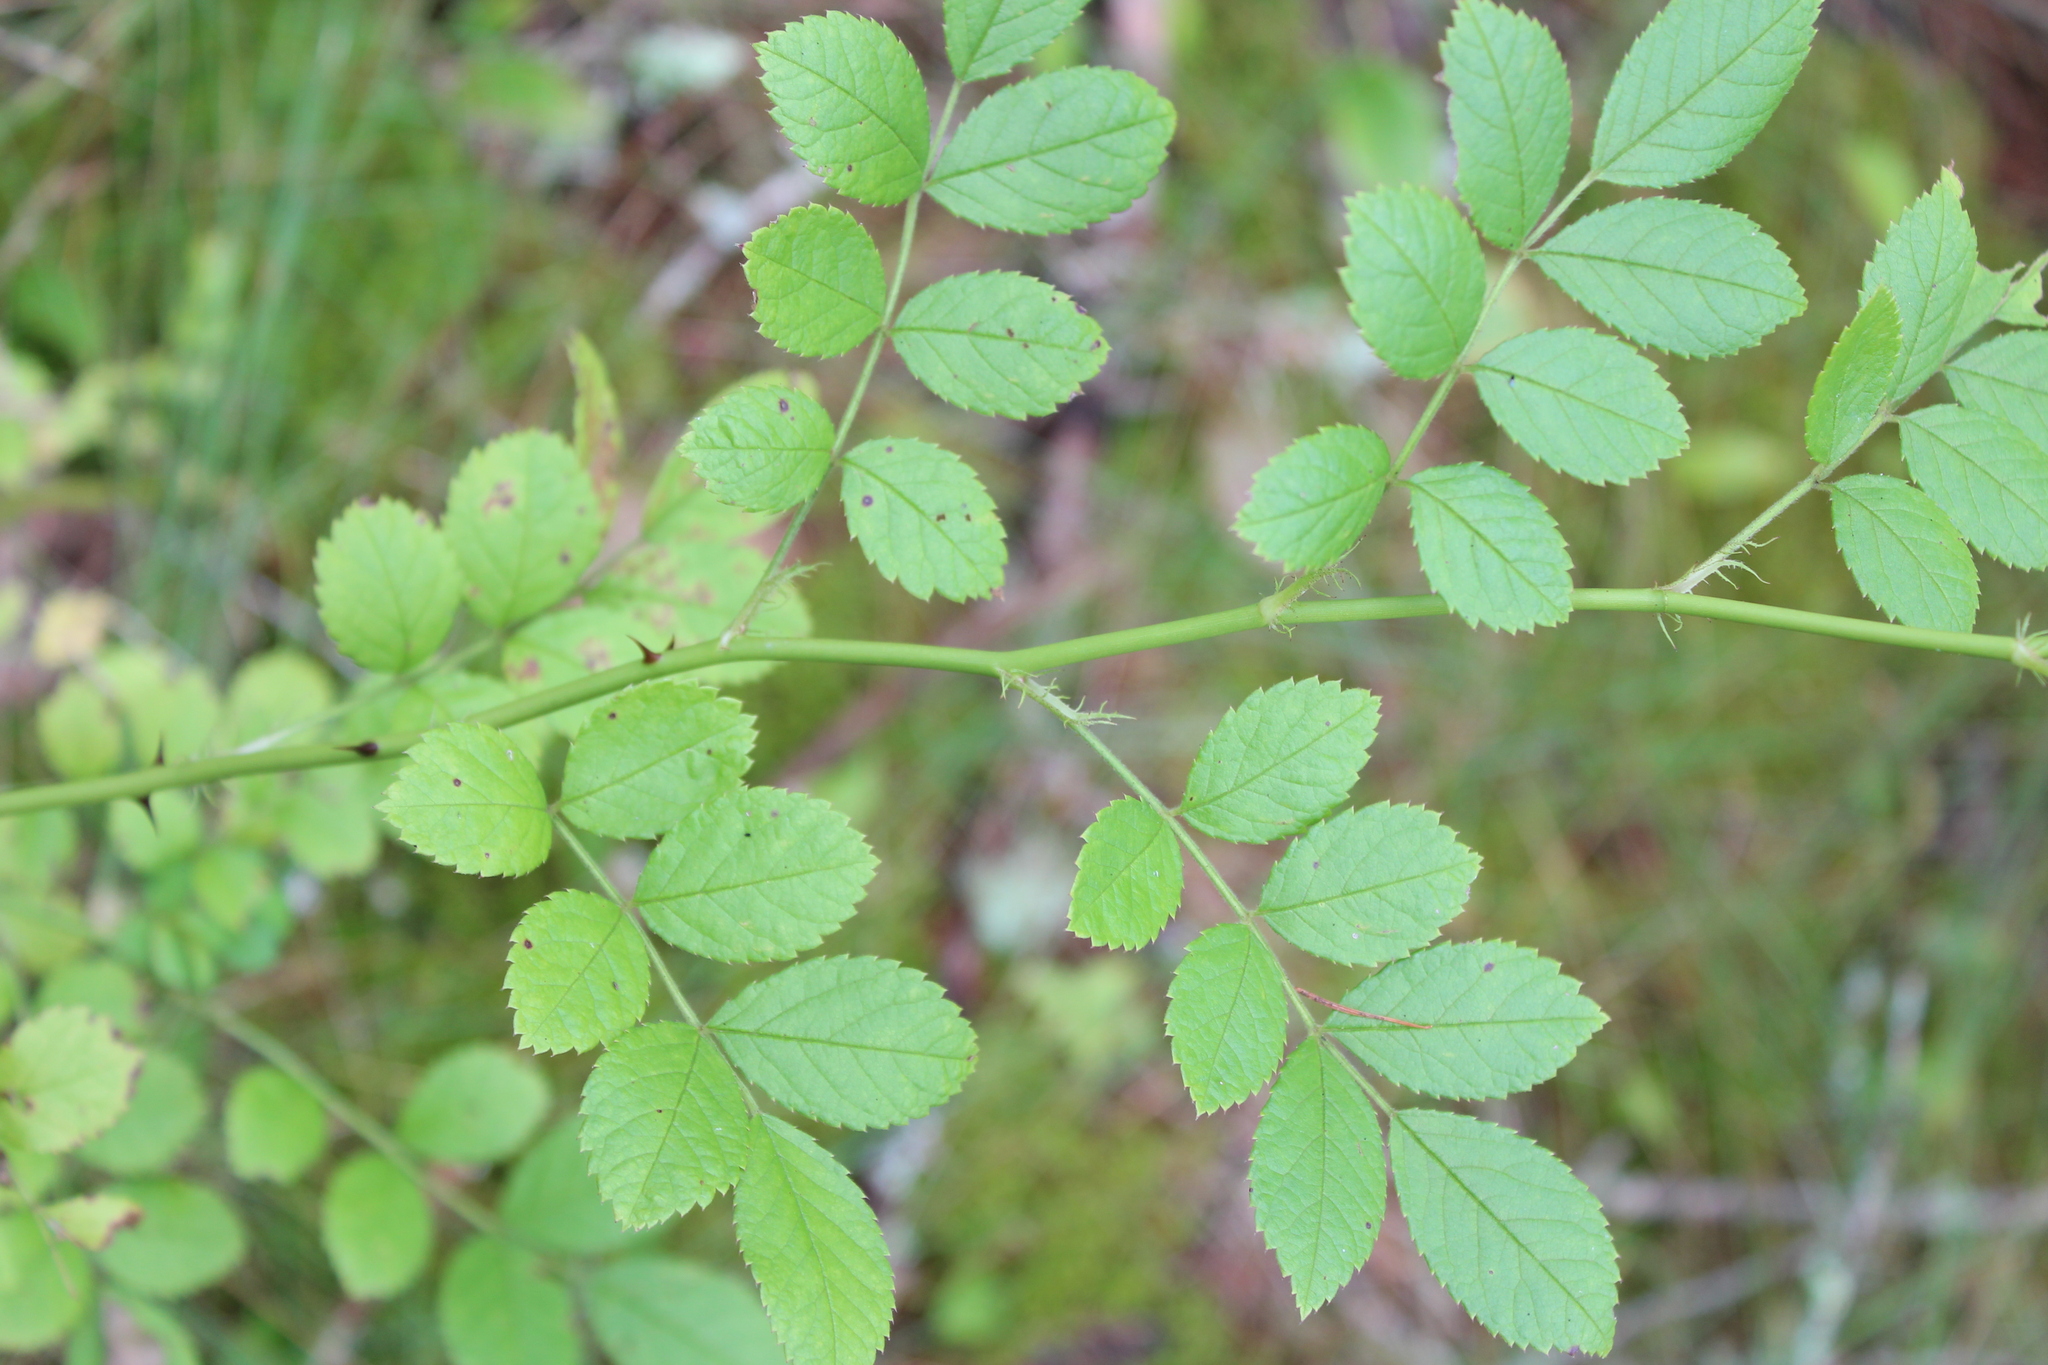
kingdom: Plantae
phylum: Tracheophyta
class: Magnoliopsida
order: Rosales
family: Rosaceae
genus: Rosa
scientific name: Rosa multiflora
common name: Multiflora rose
